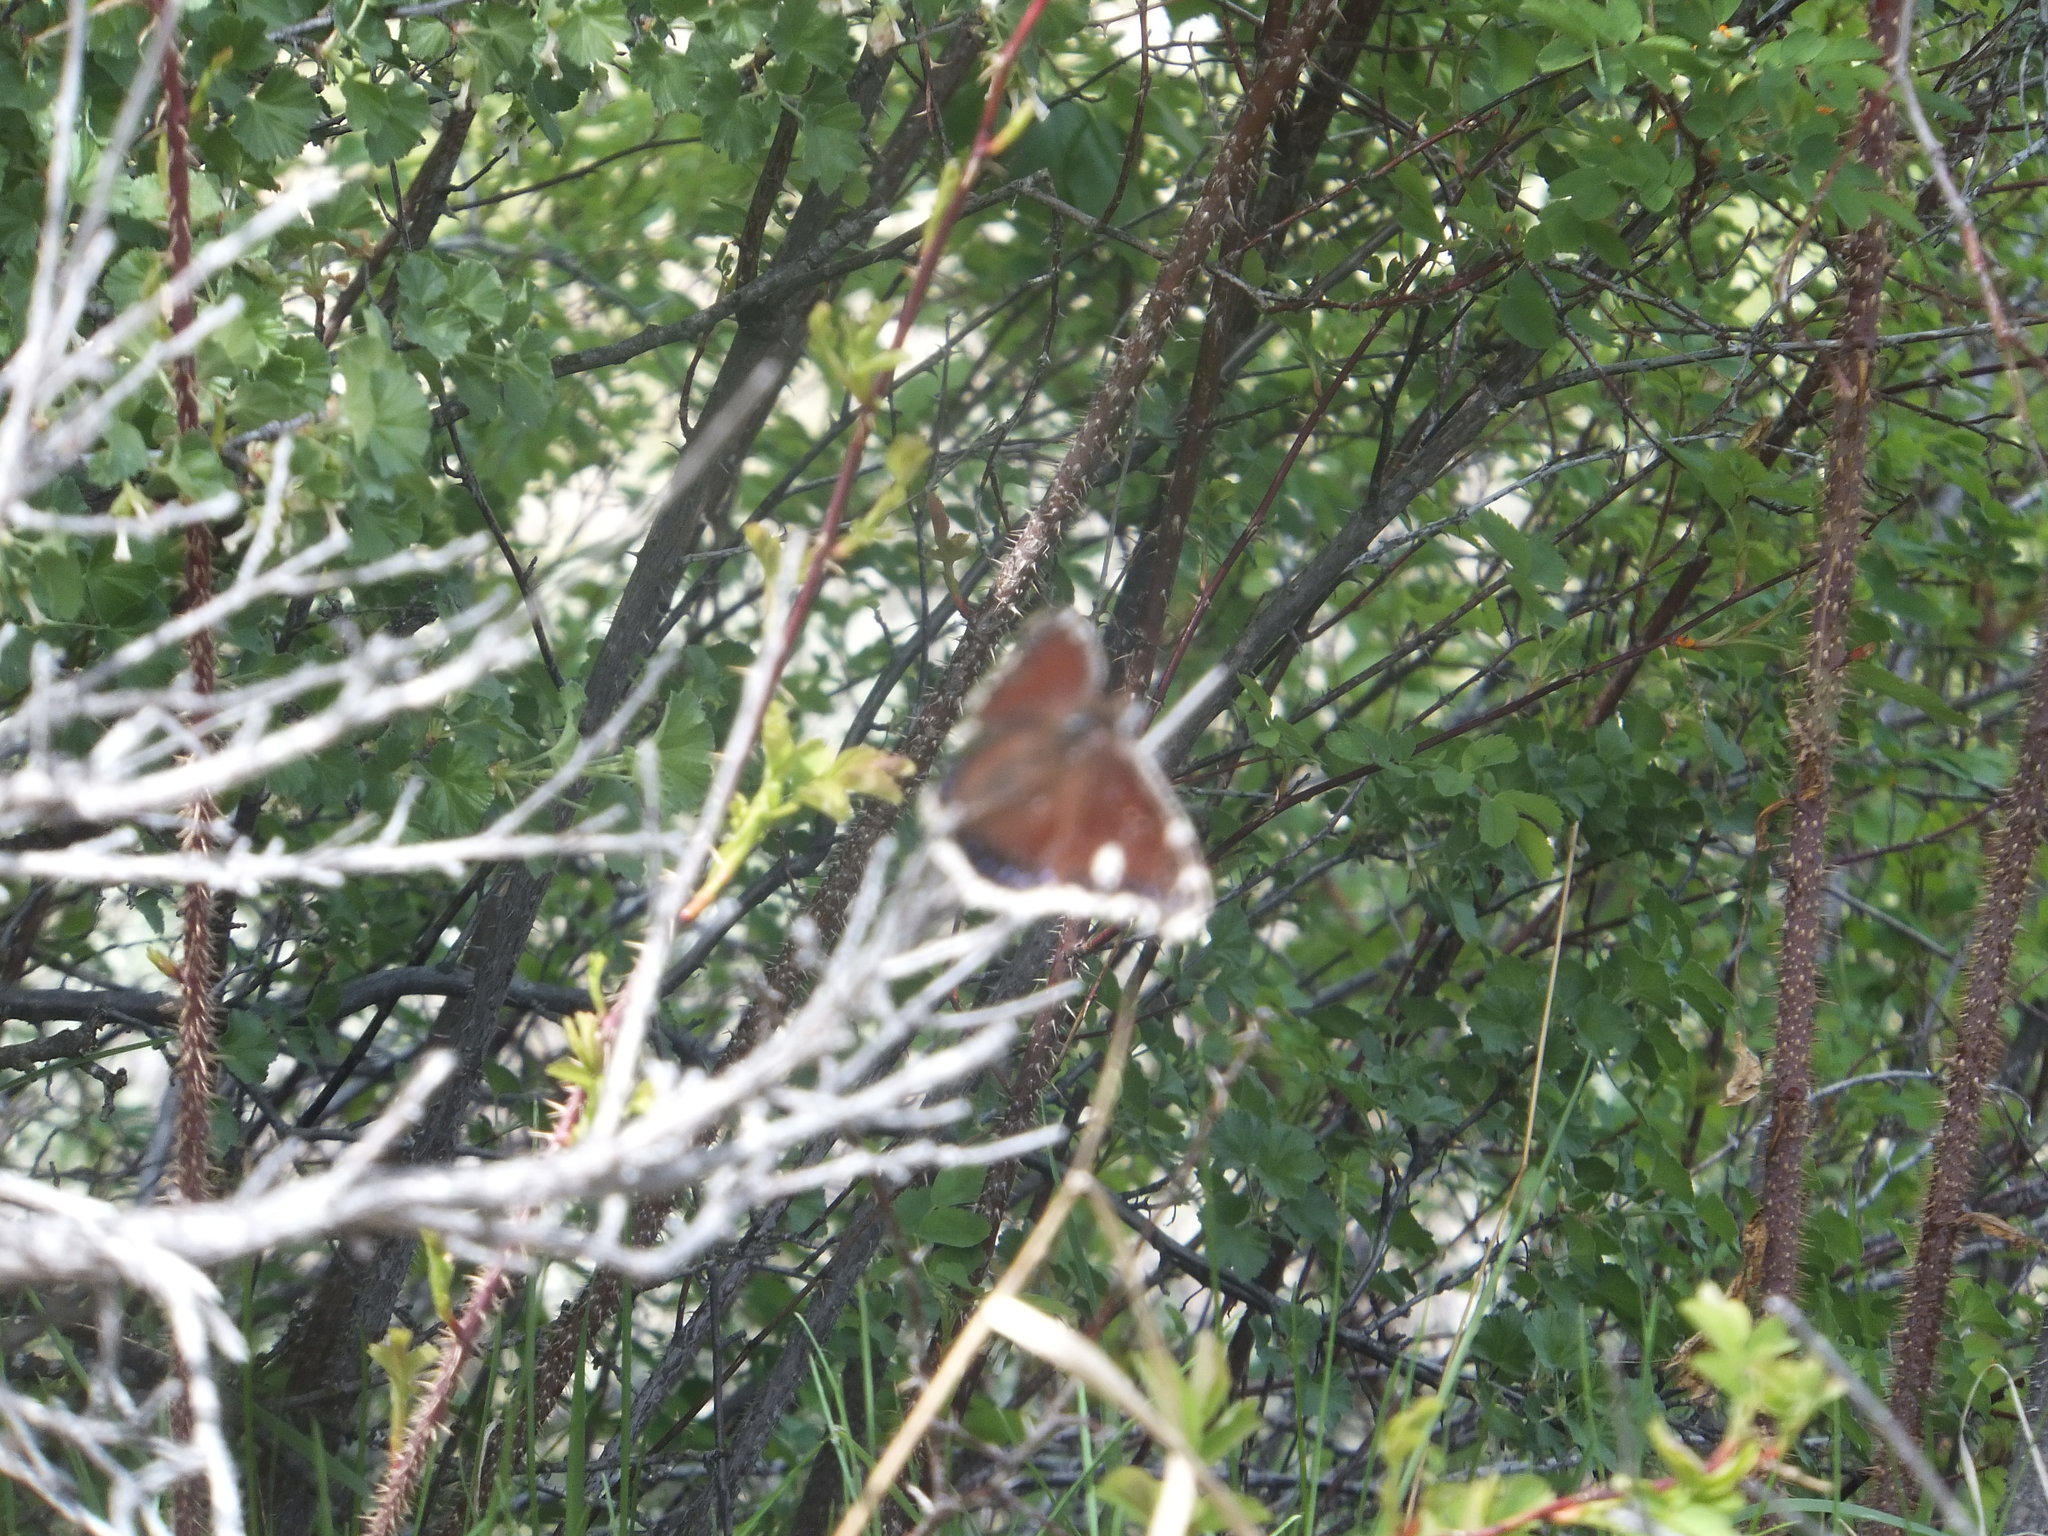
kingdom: Animalia
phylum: Arthropoda
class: Insecta
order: Lepidoptera
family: Nymphalidae
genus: Nymphalis
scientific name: Nymphalis antiopa
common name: Camberwell beauty
